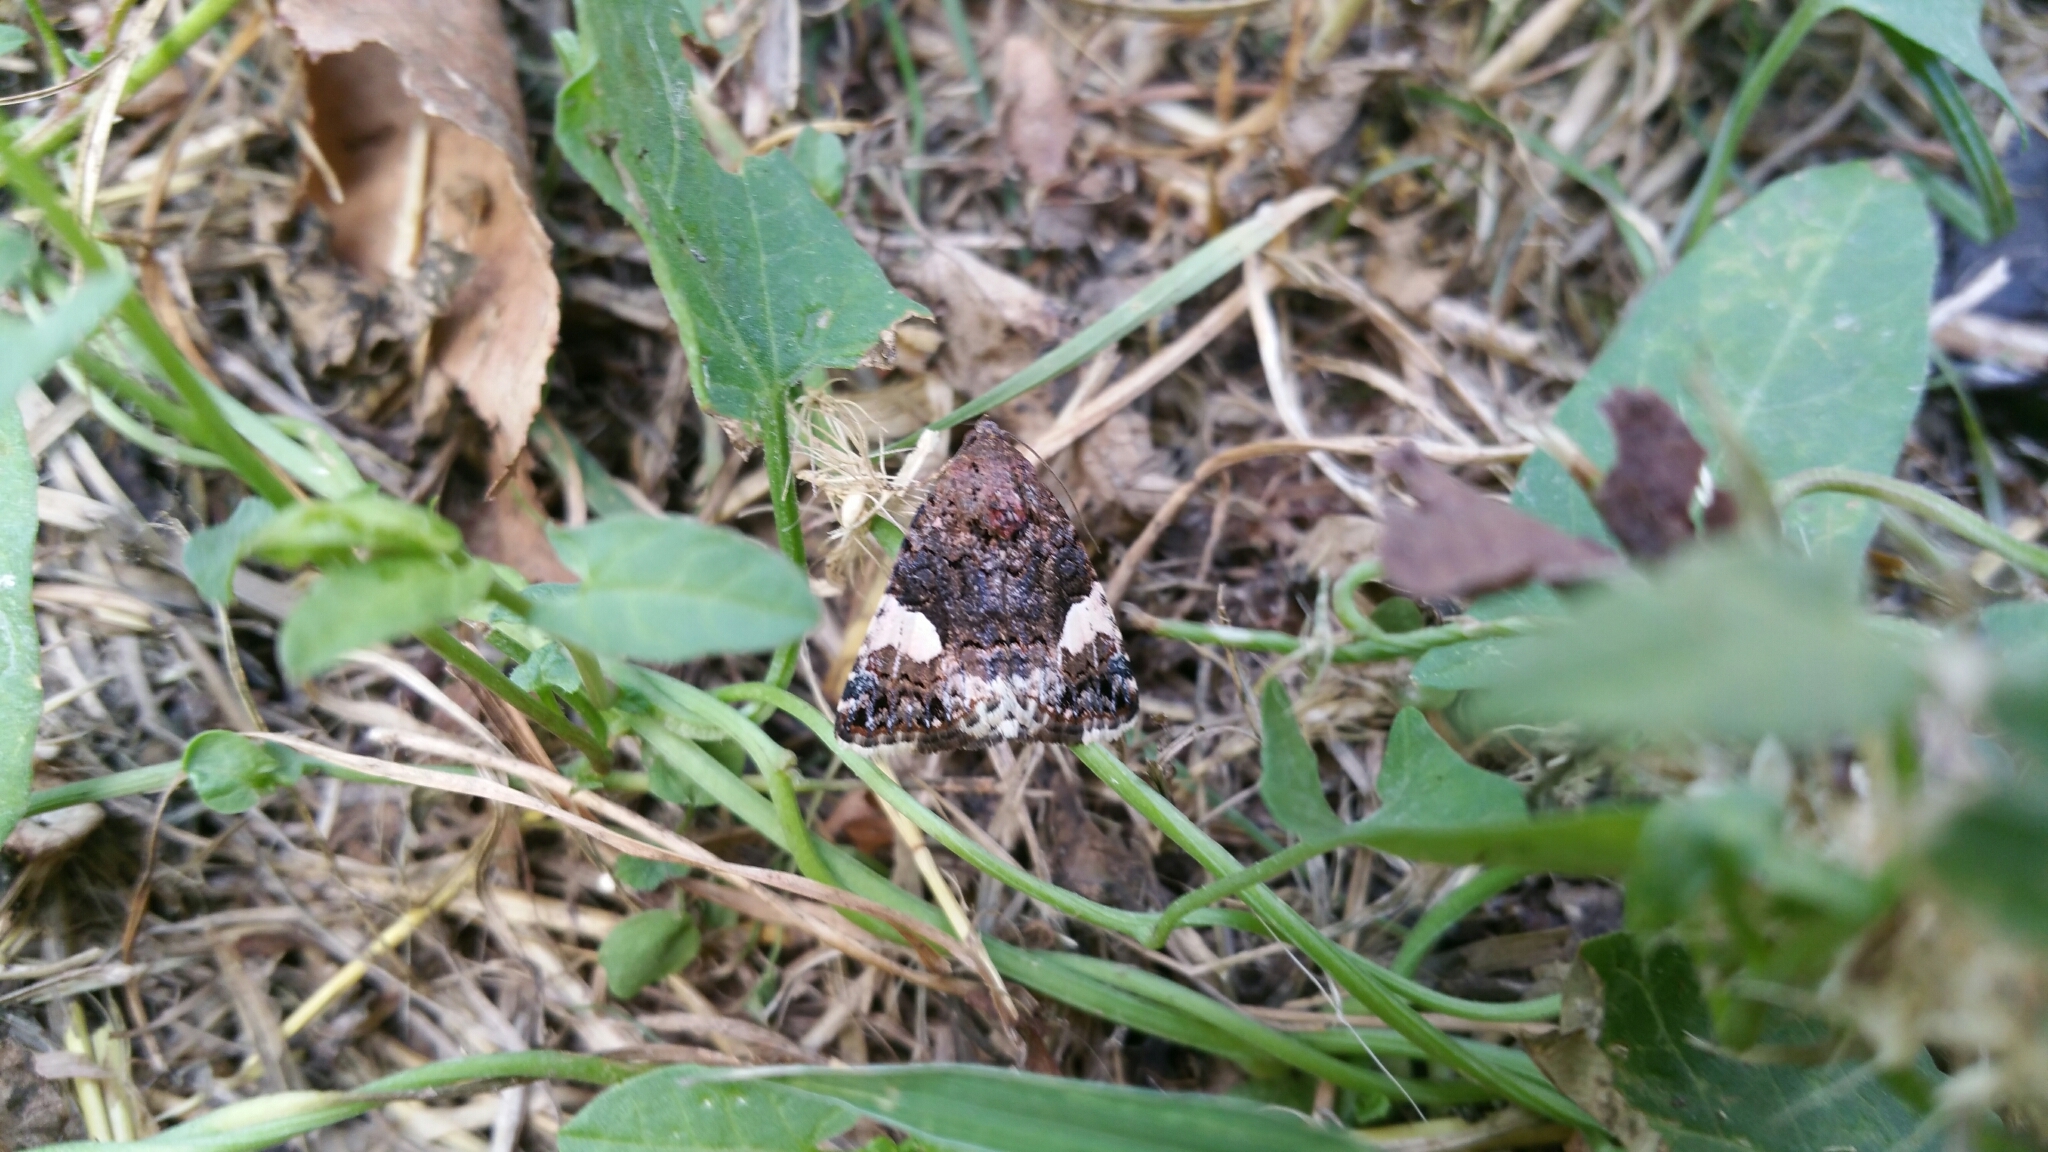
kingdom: Animalia
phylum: Arthropoda
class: Insecta
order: Lepidoptera
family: Erebidae
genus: Tyta
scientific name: Tyta luctuosa
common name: Four-spotted
